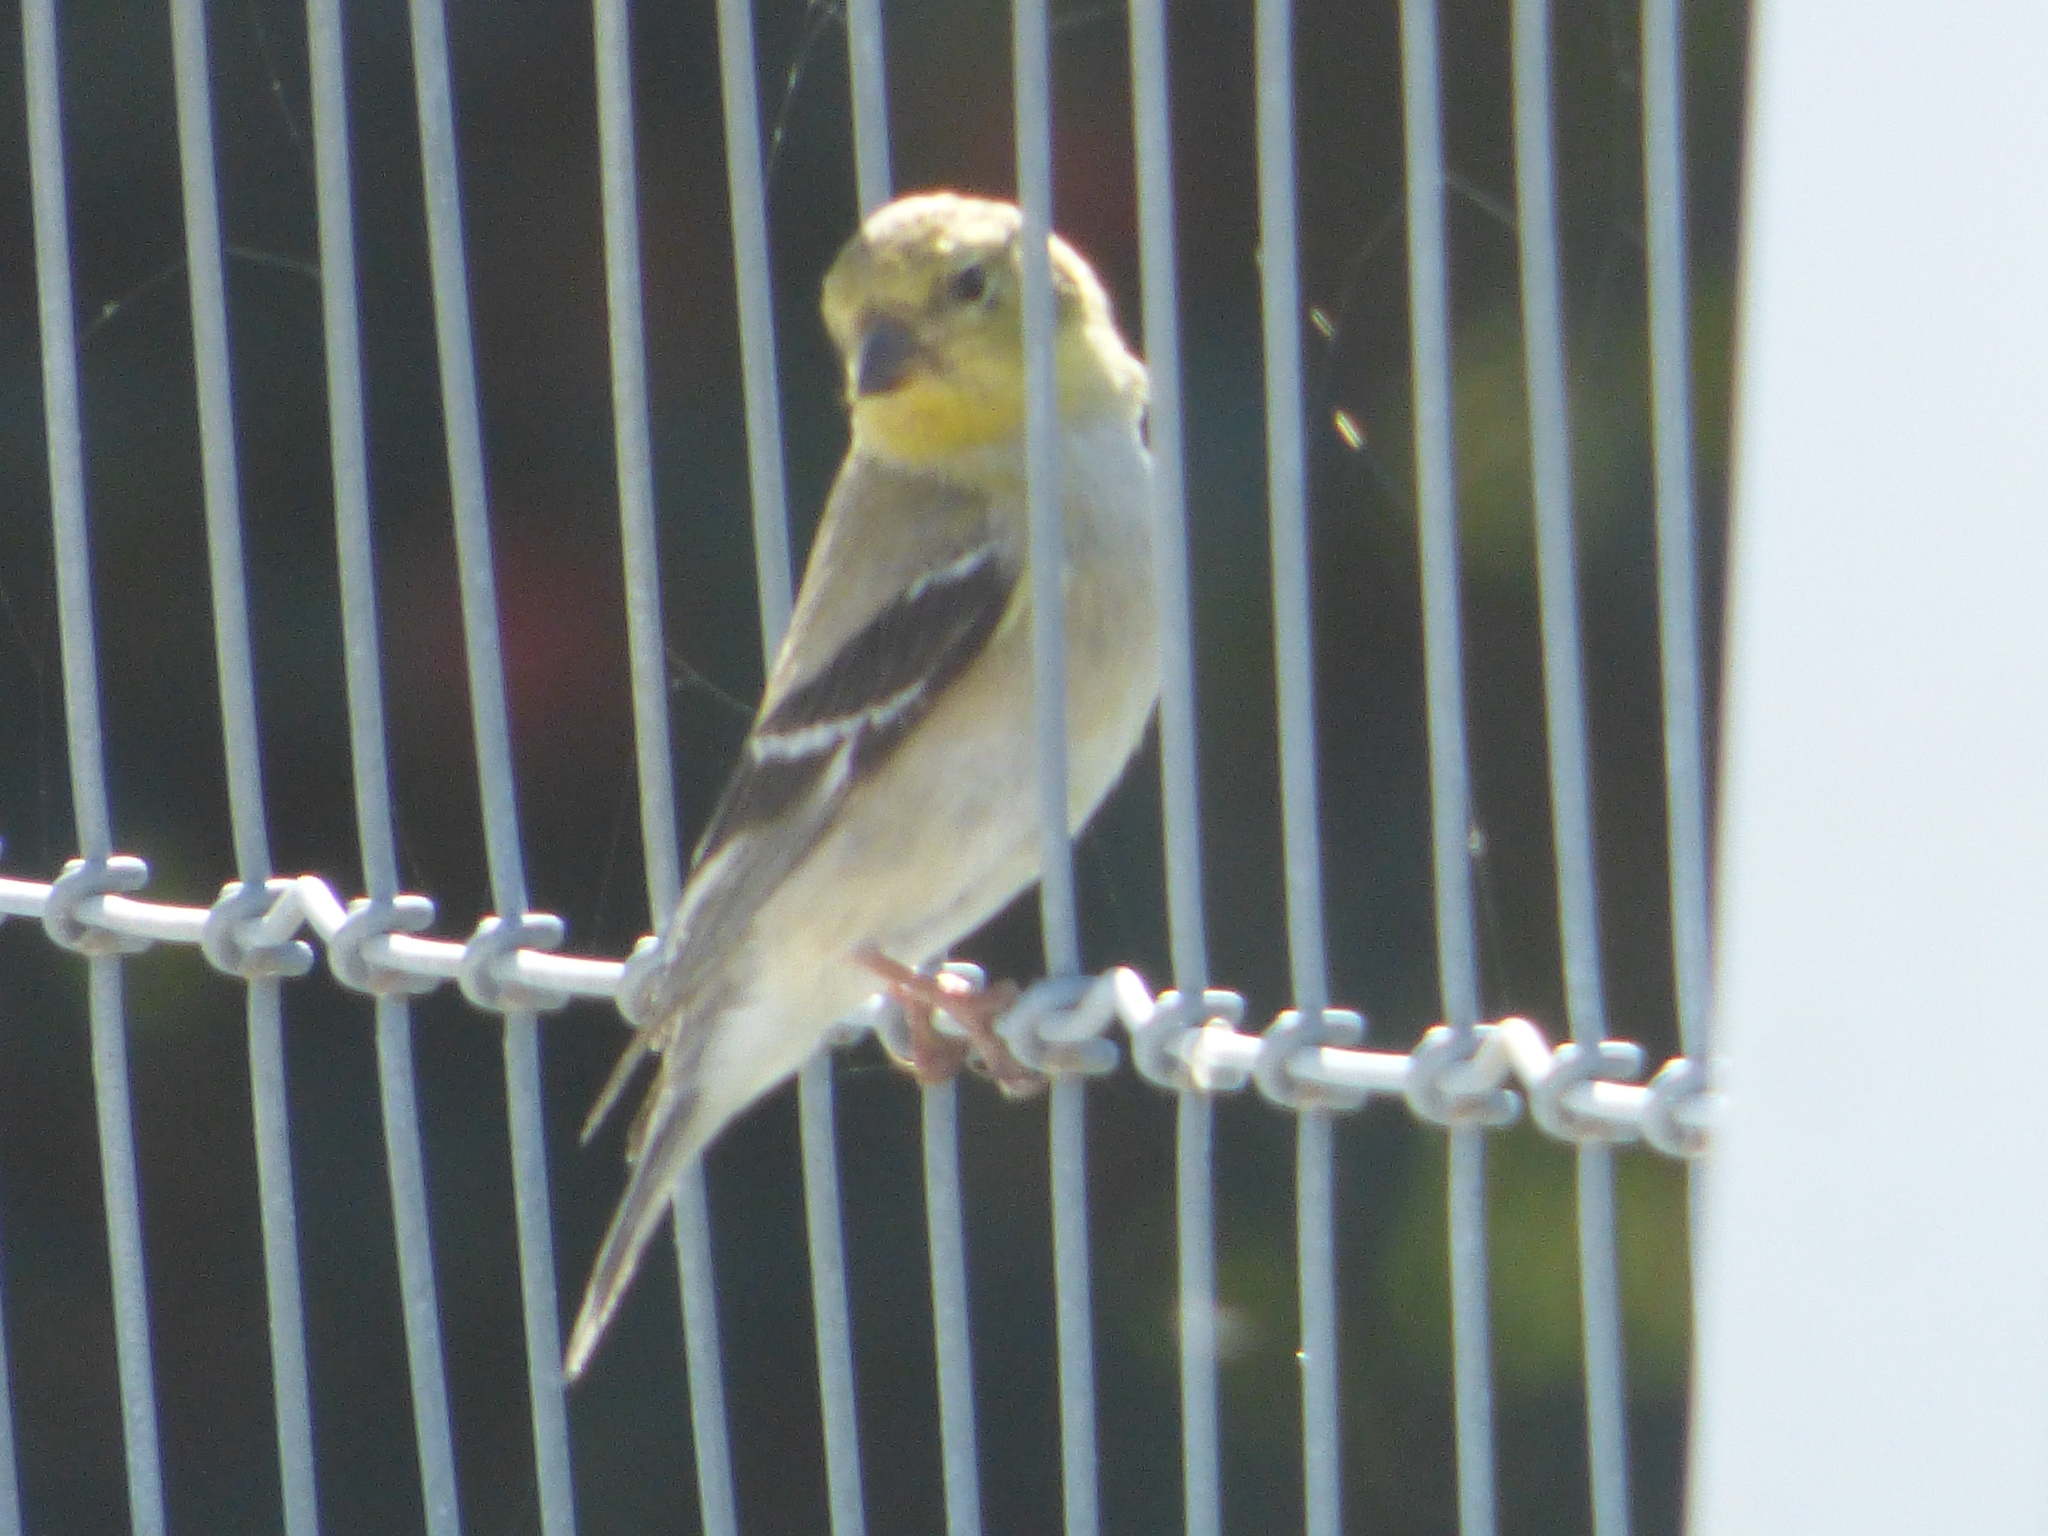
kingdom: Animalia
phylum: Chordata
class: Aves
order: Passeriformes
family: Fringillidae
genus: Spinus
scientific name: Spinus tristis
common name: American goldfinch
